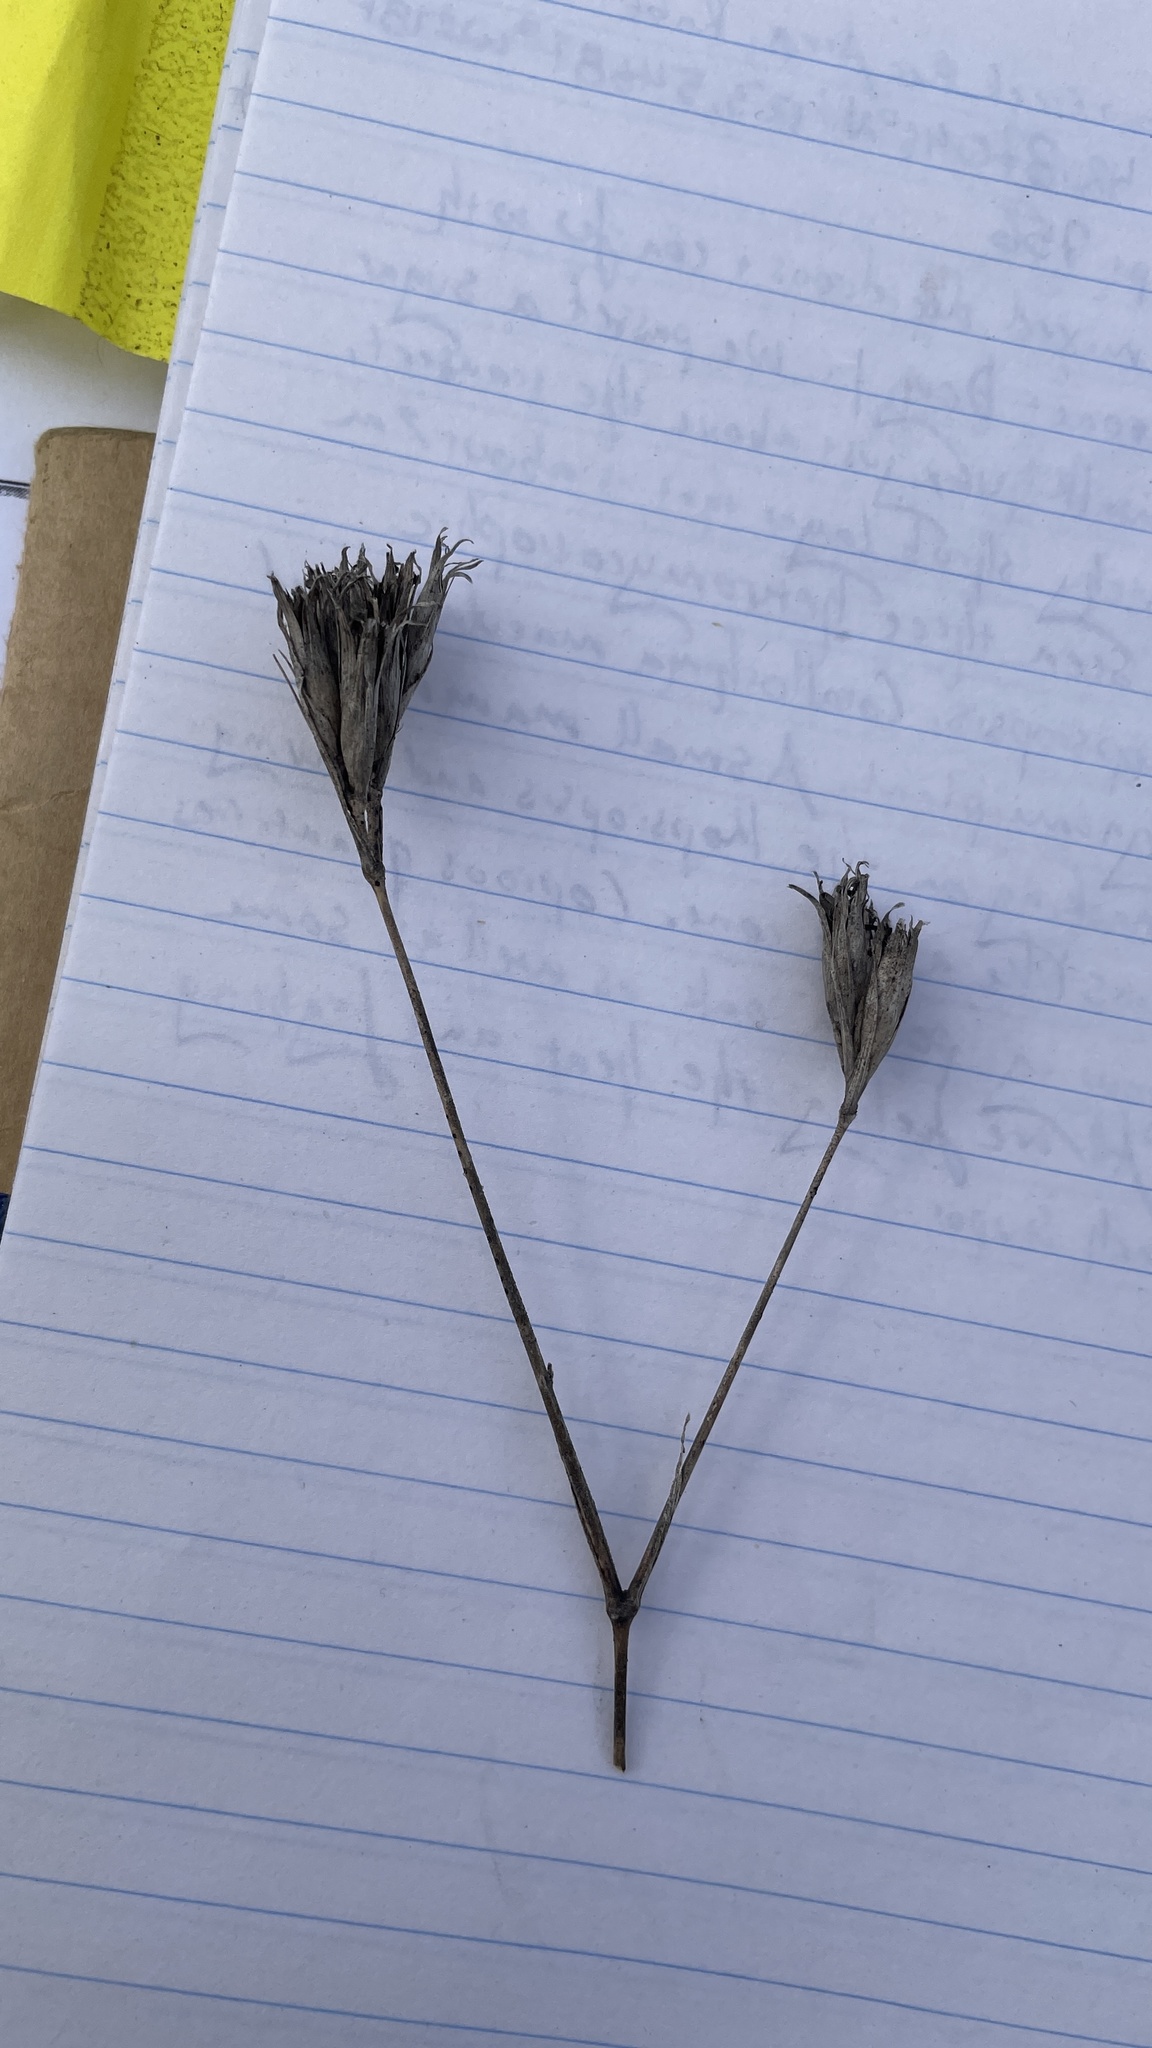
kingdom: Plantae
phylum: Tracheophyta
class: Magnoliopsida
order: Caryophyllales
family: Caryophyllaceae
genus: Dianthus
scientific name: Dianthus armeria
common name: Deptford pink
